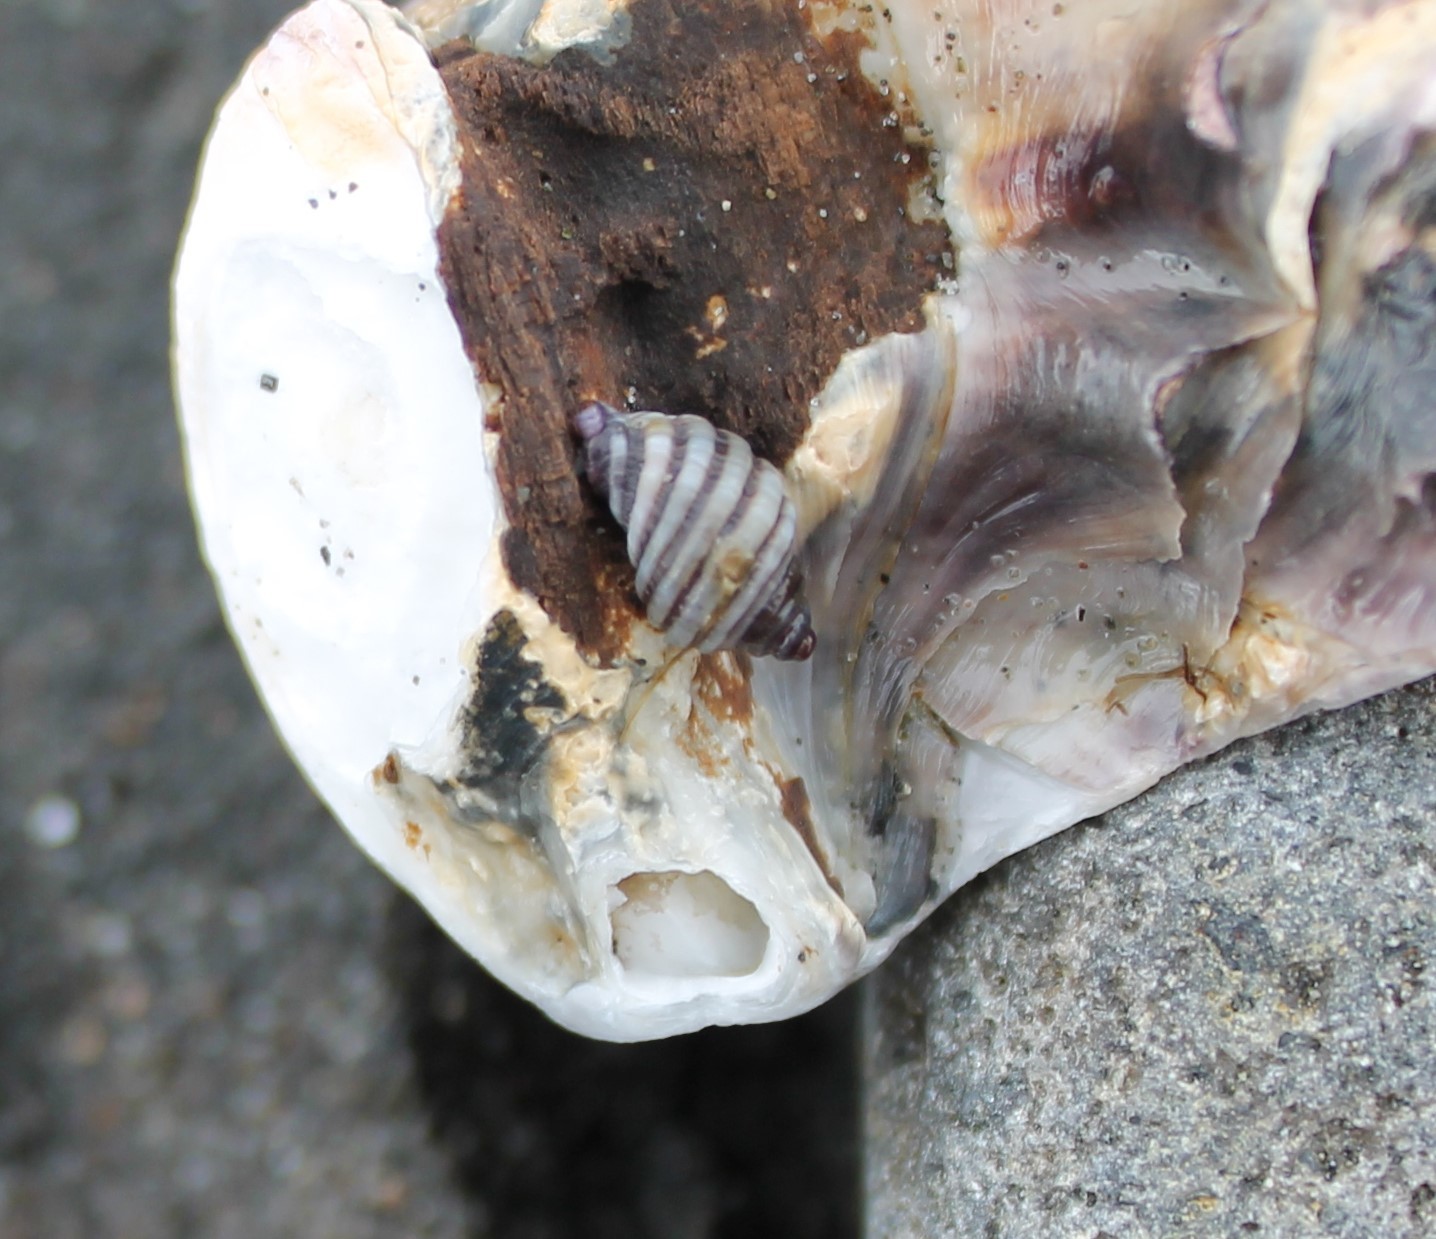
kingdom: Animalia
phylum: Mollusca
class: Gastropoda
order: Neogastropoda
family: Muricidae
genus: Paratrophon
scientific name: Paratrophon cheesemani
